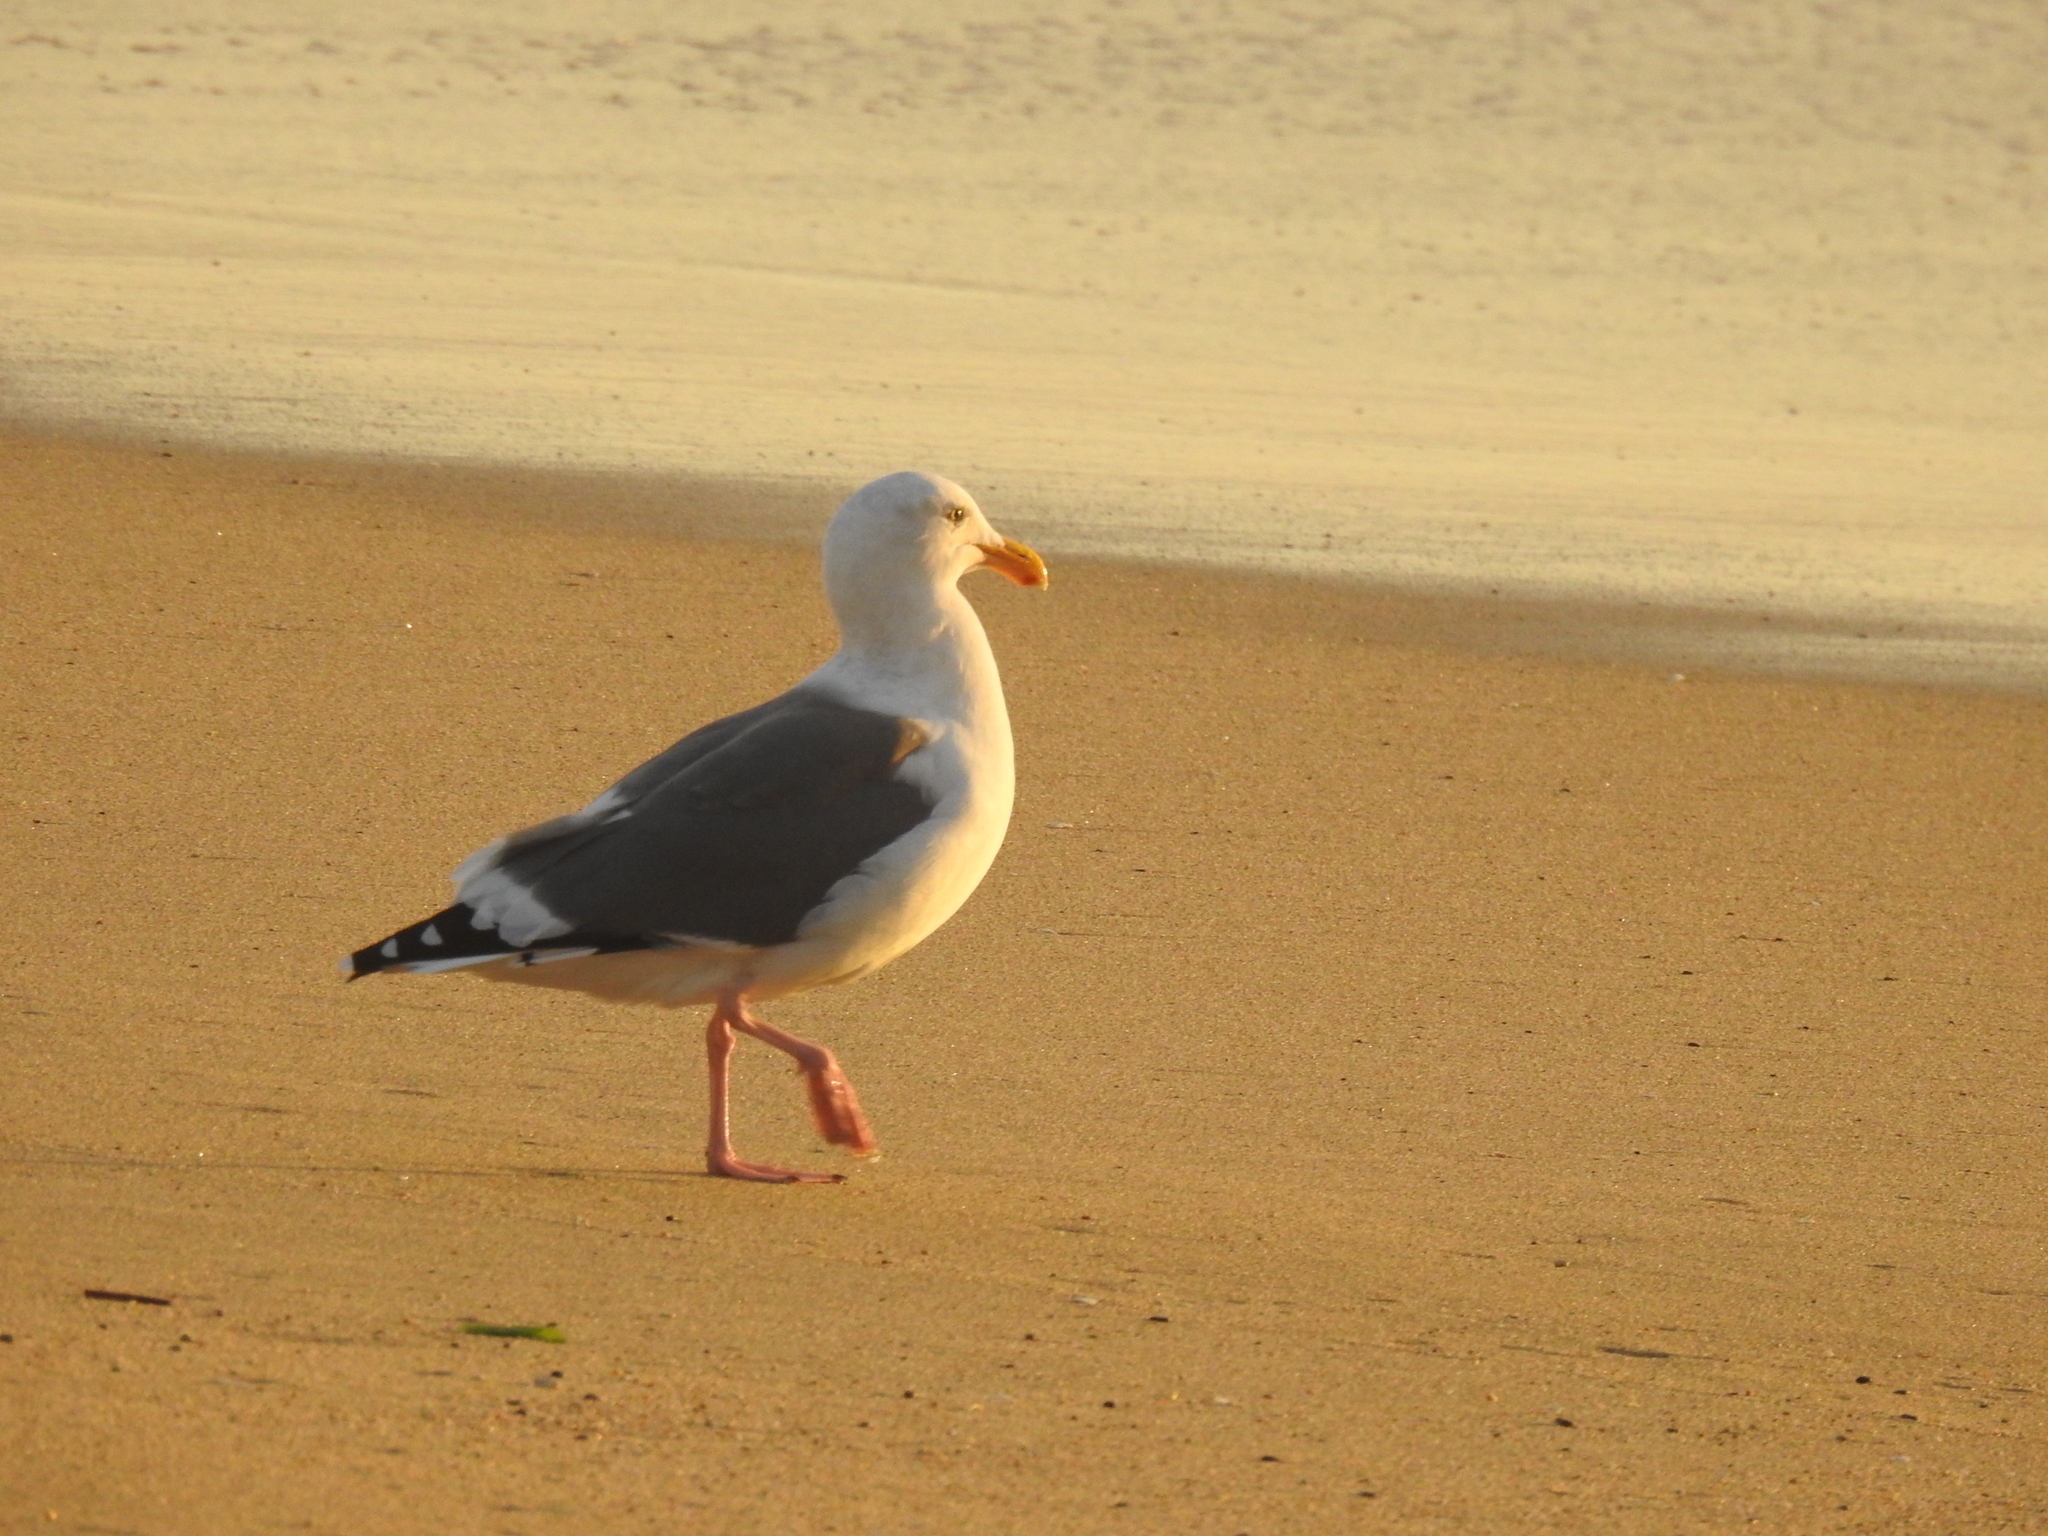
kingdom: Animalia
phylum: Chordata
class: Aves
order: Charadriiformes
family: Laridae
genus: Larus
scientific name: Larus occidentalis
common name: Western gull
